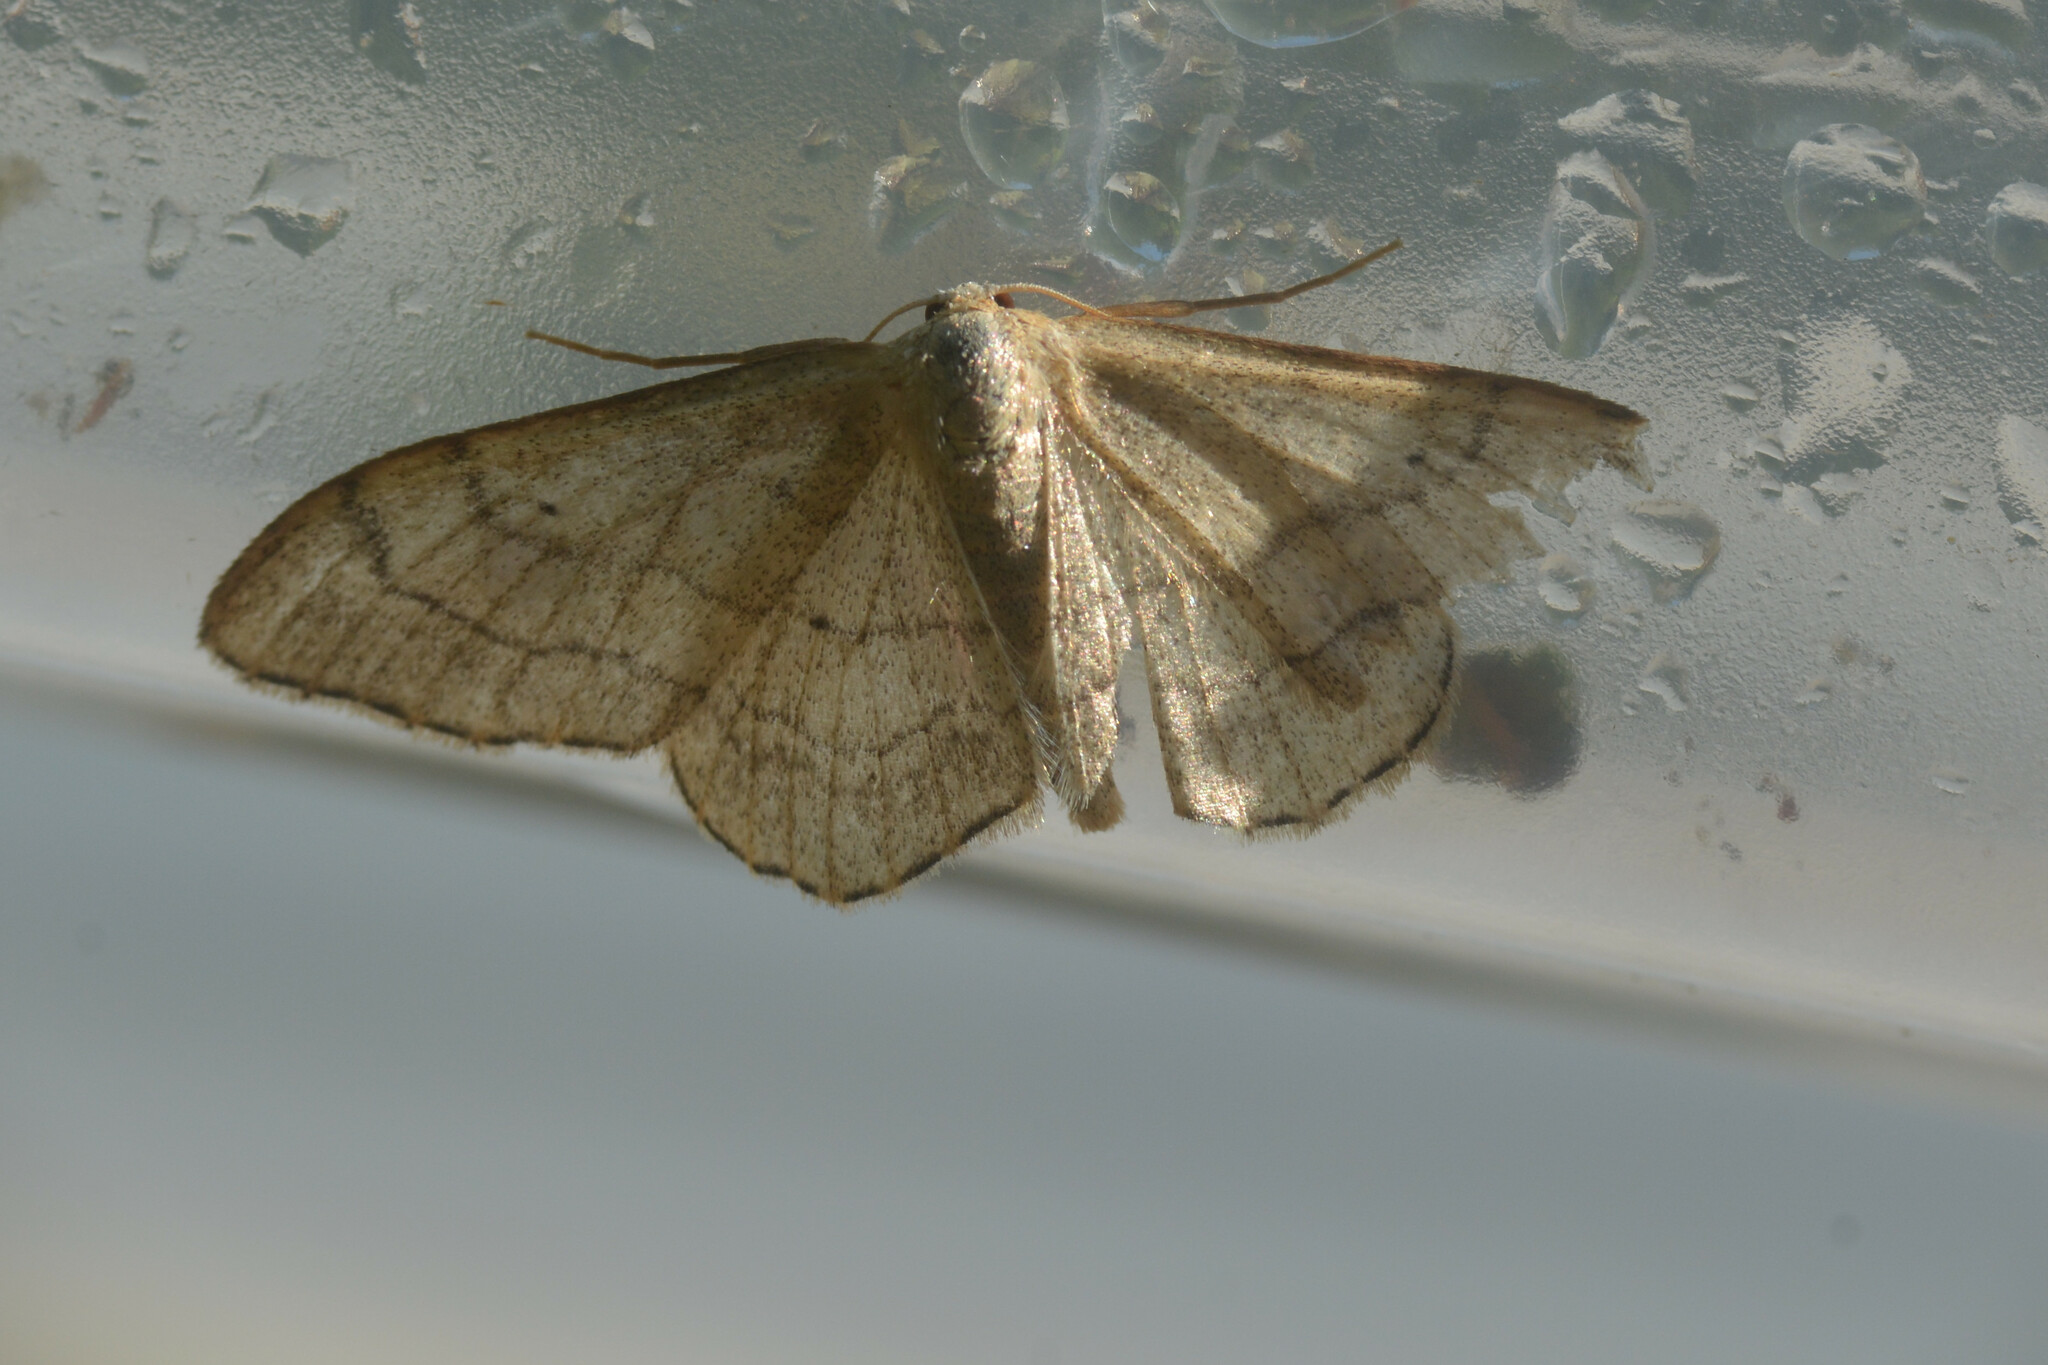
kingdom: Animalia
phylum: Arthropoda
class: Insecta
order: Lepidoptera
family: Geometridae
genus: Idaea
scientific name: Idaea aversata
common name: Riband wave
